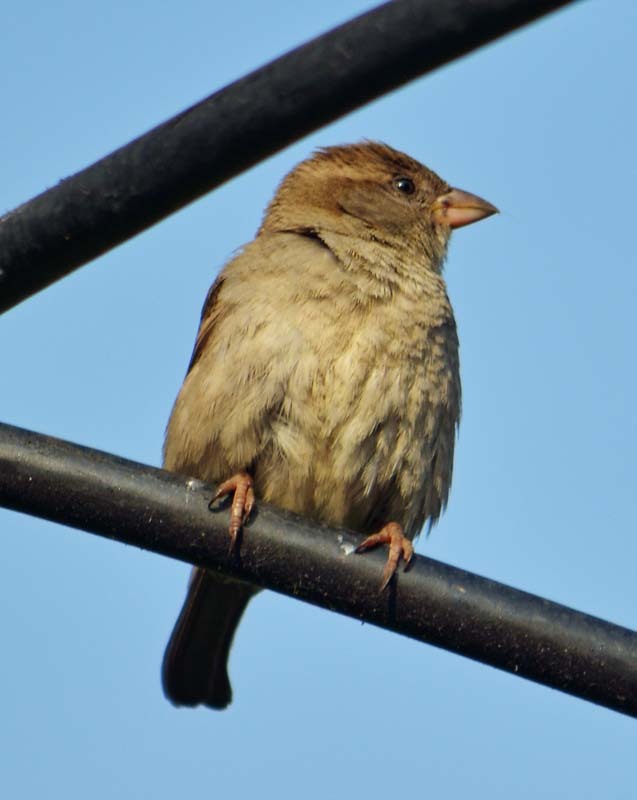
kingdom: Animalia
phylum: Chordata
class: Aves
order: Passeriformes
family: Passeridae
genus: Passer
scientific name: Passer domesticus
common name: House sparrow
